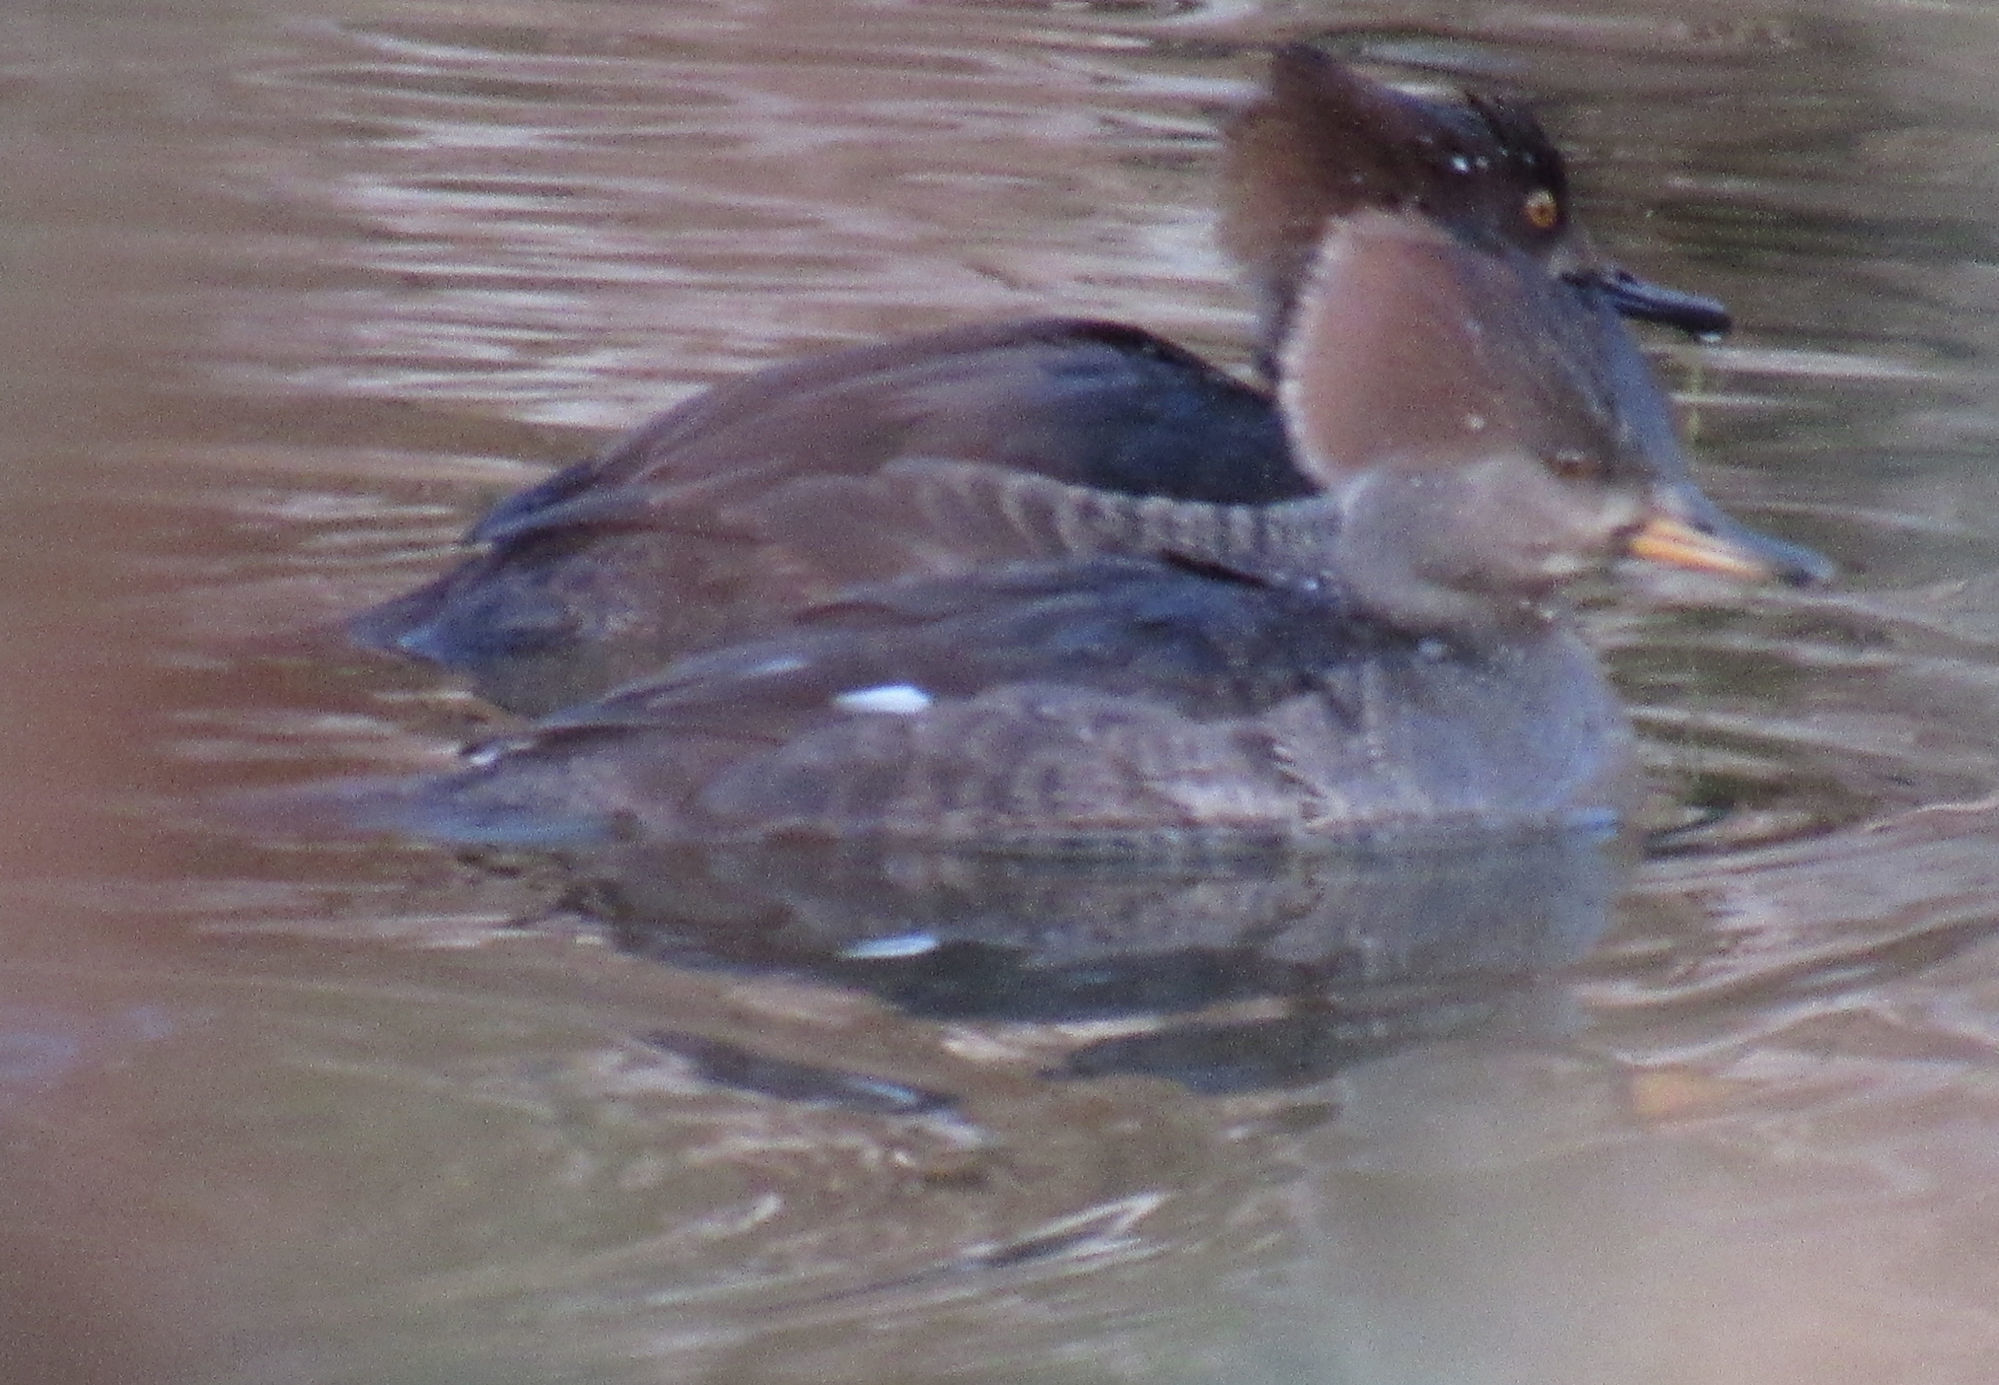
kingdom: Animalia
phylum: Chordata
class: Aves
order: Anseriformes
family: Anatidae
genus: Lophodytes
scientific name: Lophodytes cucullatus
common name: Hooded merganser
